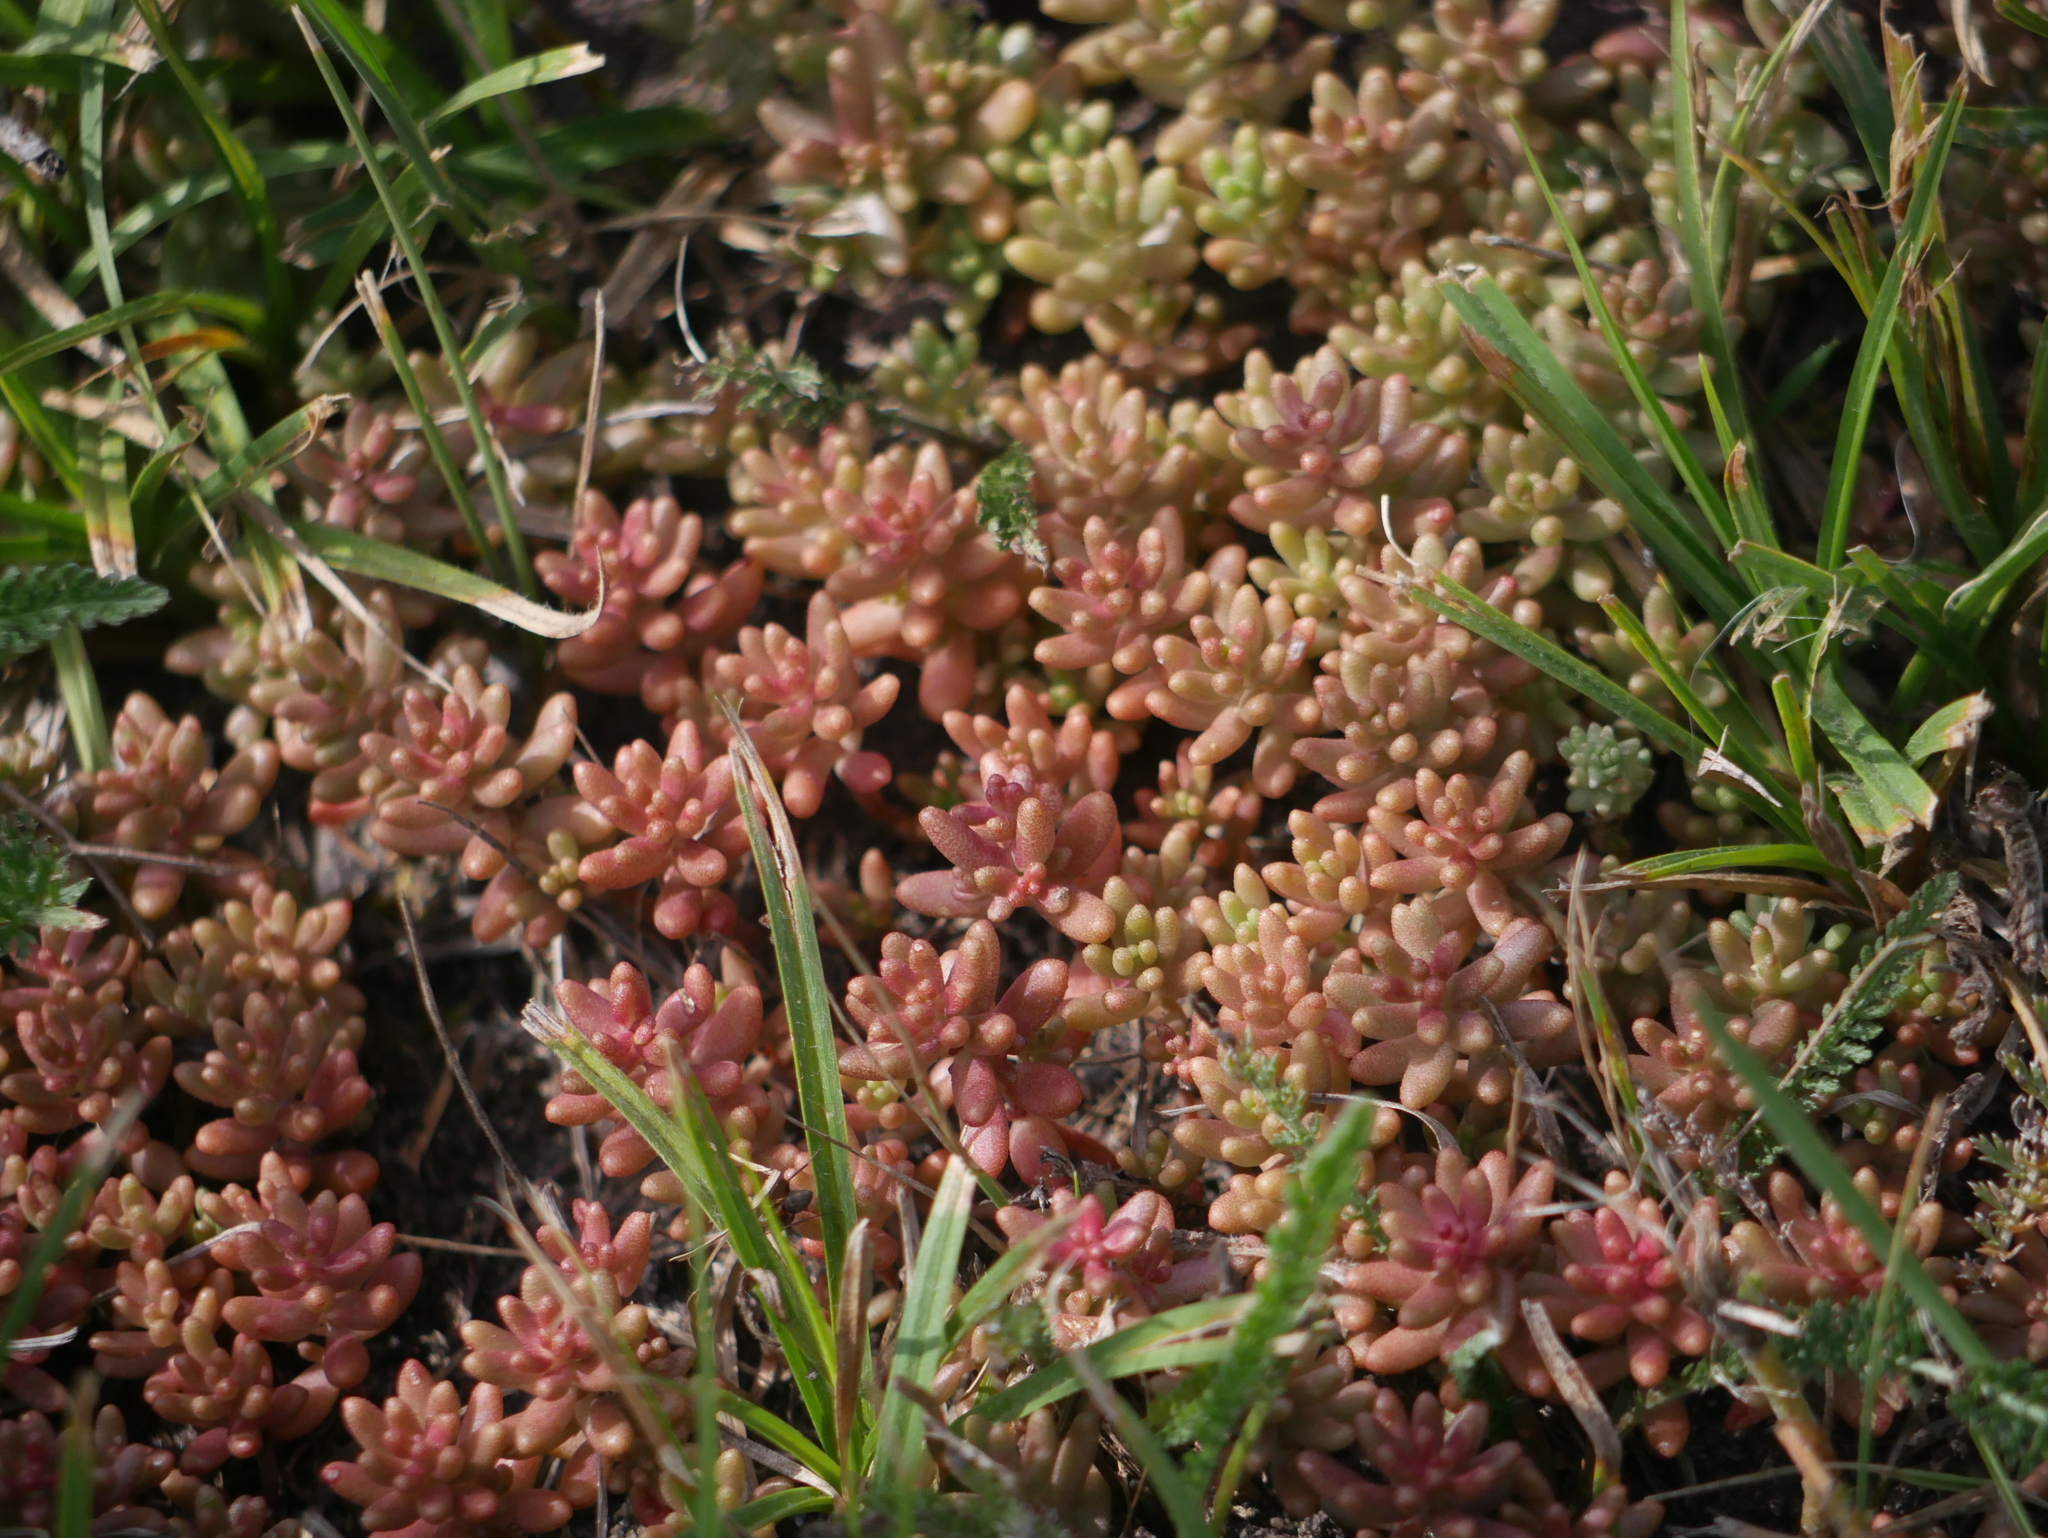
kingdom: Plantae
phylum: Tracheophyta
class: Magnoliopsida
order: Saxifragales
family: Crassulaceae
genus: Sedum
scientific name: Sedum album
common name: White stonecrop
